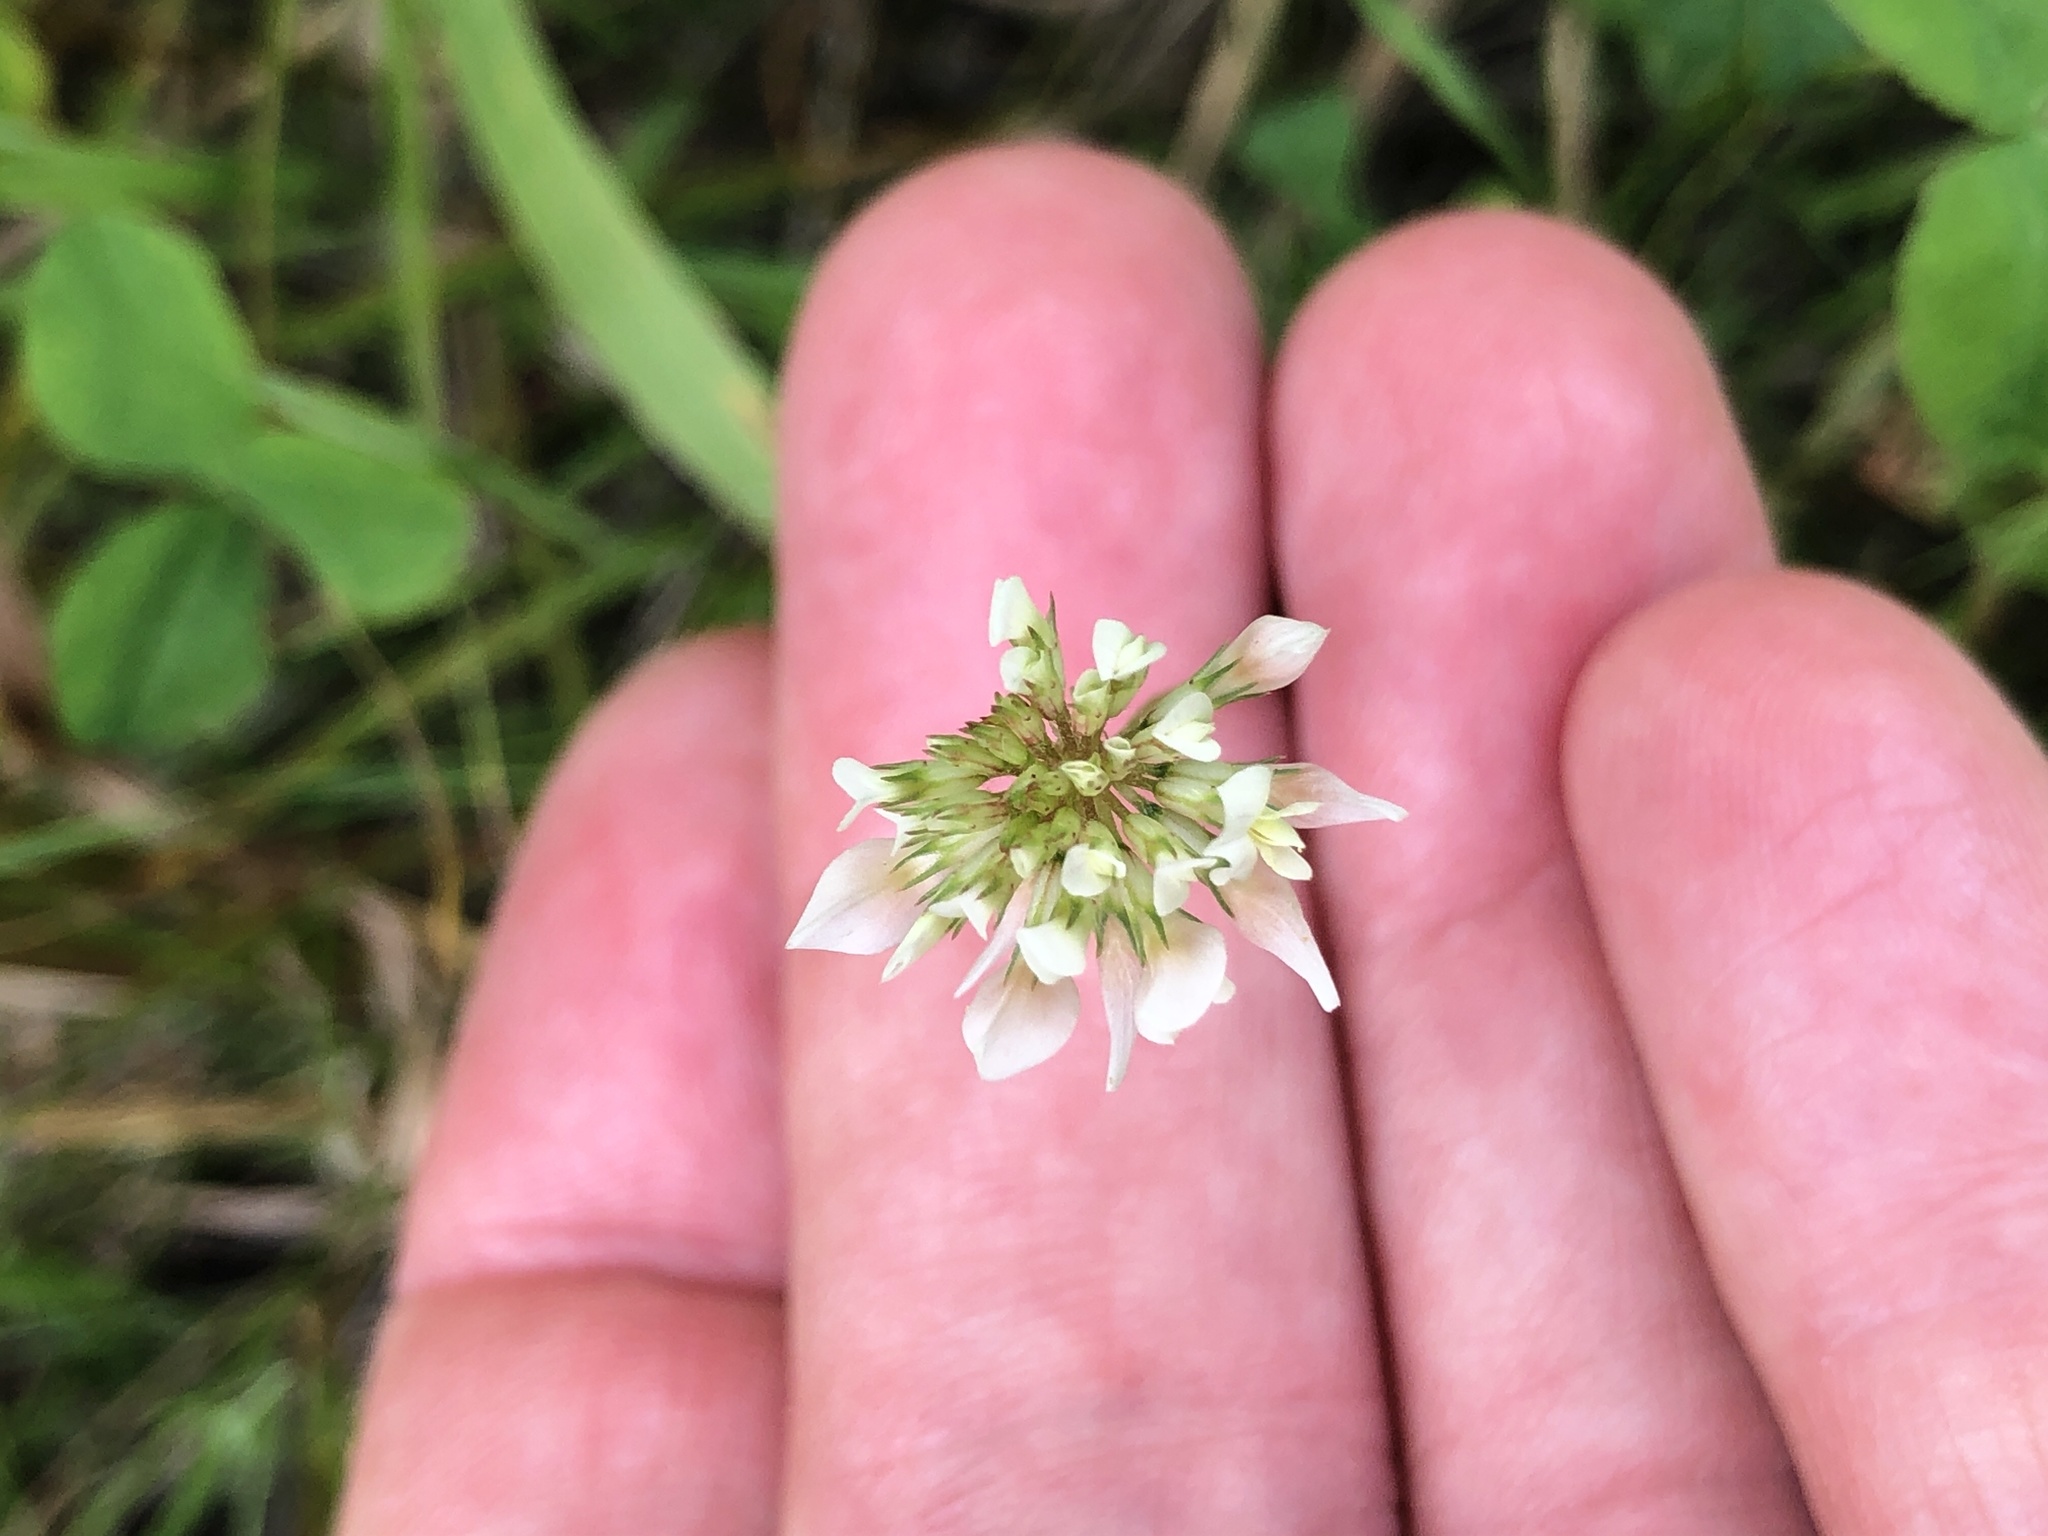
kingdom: Plantae
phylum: Tracheophyta
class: Magnoliopsida
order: Fabales
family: Fabaceae
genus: Trifolium
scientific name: Trifolium repens
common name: White clover
